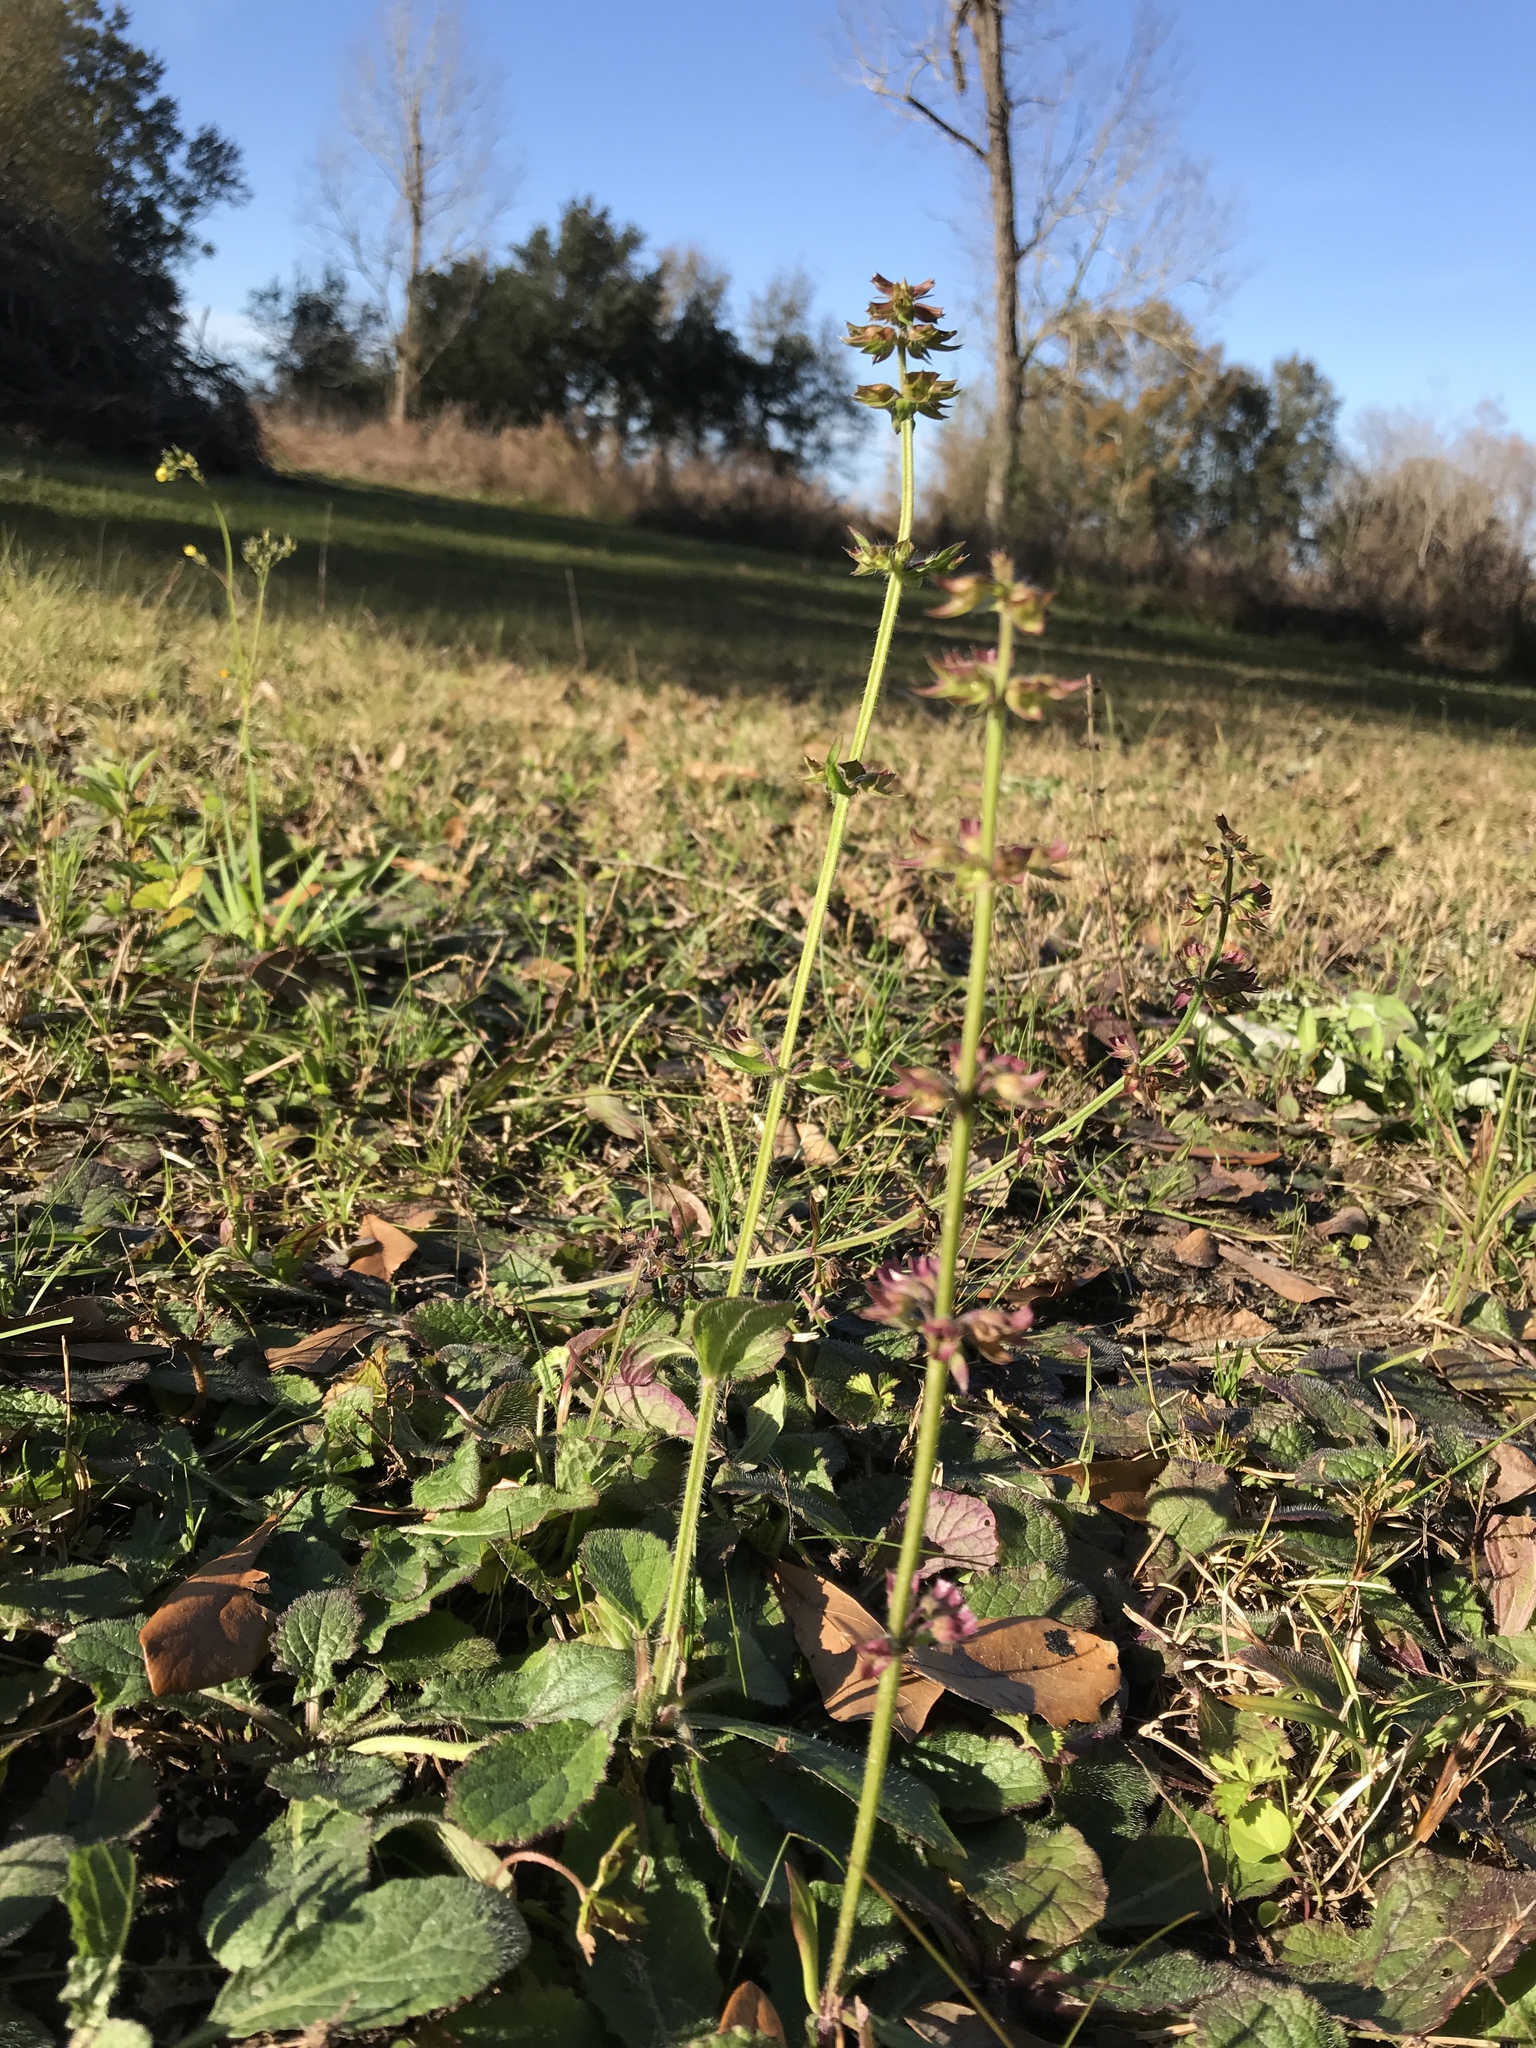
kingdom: Plantae
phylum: Tracheophyta
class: Magnoliopsida
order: Lamiales
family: Lamiaceae
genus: Salvia
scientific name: Salvia lyrata
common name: Cancerweed
